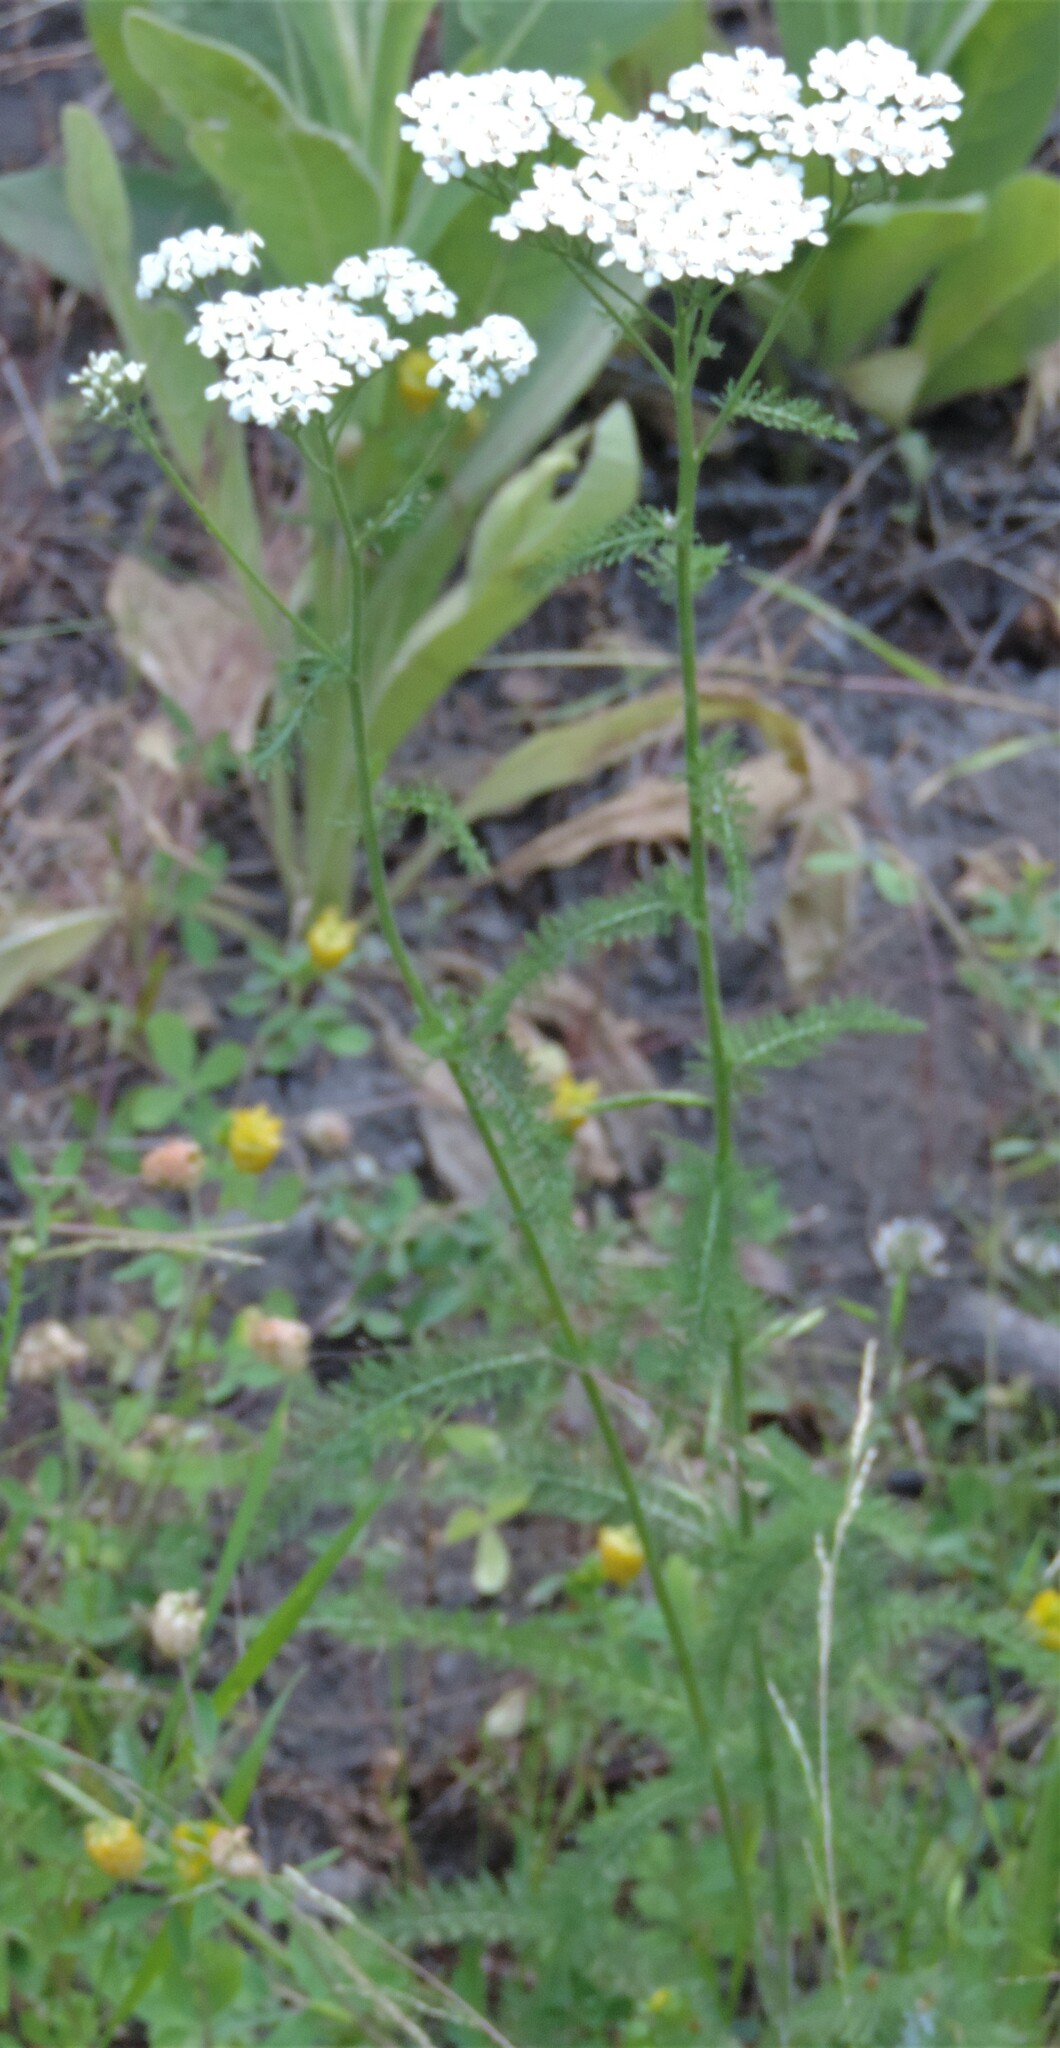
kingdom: Plantae
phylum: Tracheophyta
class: Magnoliopsida
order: Asterales
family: Asteraceae
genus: Achillea
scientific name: Achillea millefolium
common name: Yarrow
